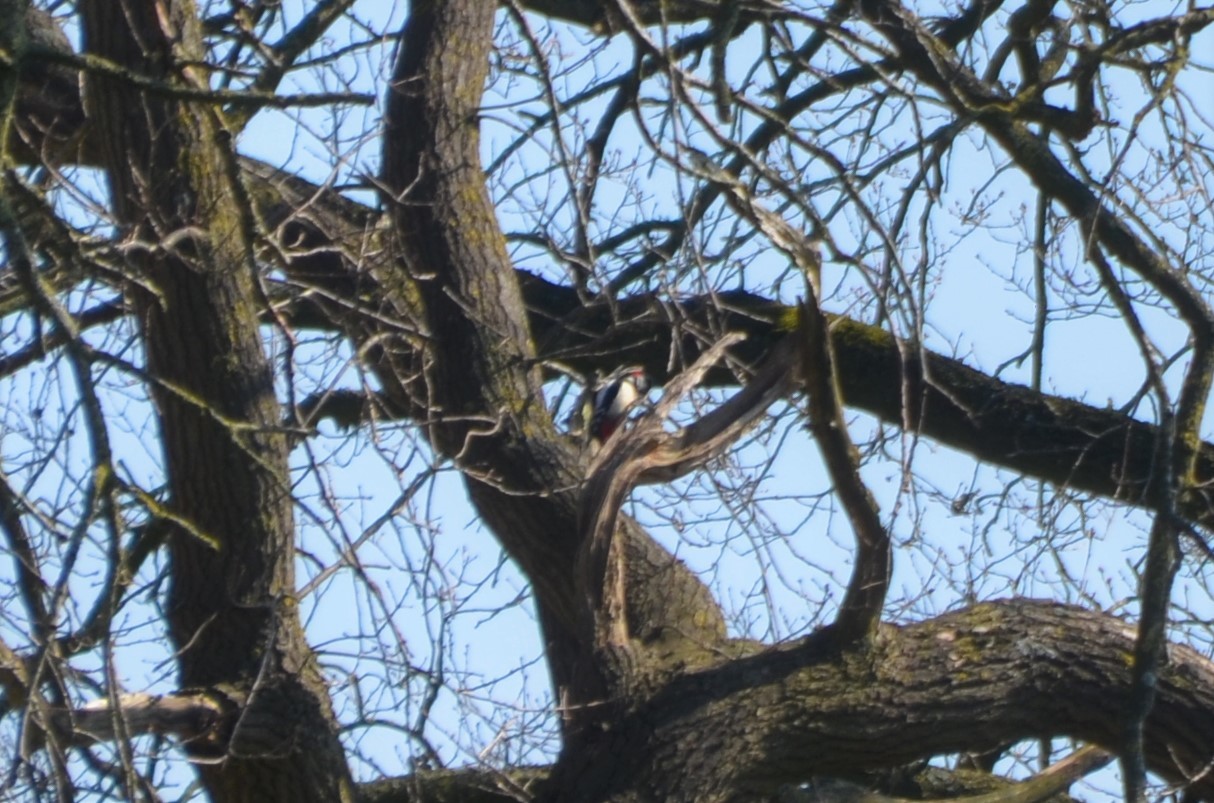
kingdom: Animalia
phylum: Chordata
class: Aves
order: Piciformes
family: Picidae
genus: Dendrocopos
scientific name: Dendrocopos major
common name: Great spotted woodpecker
